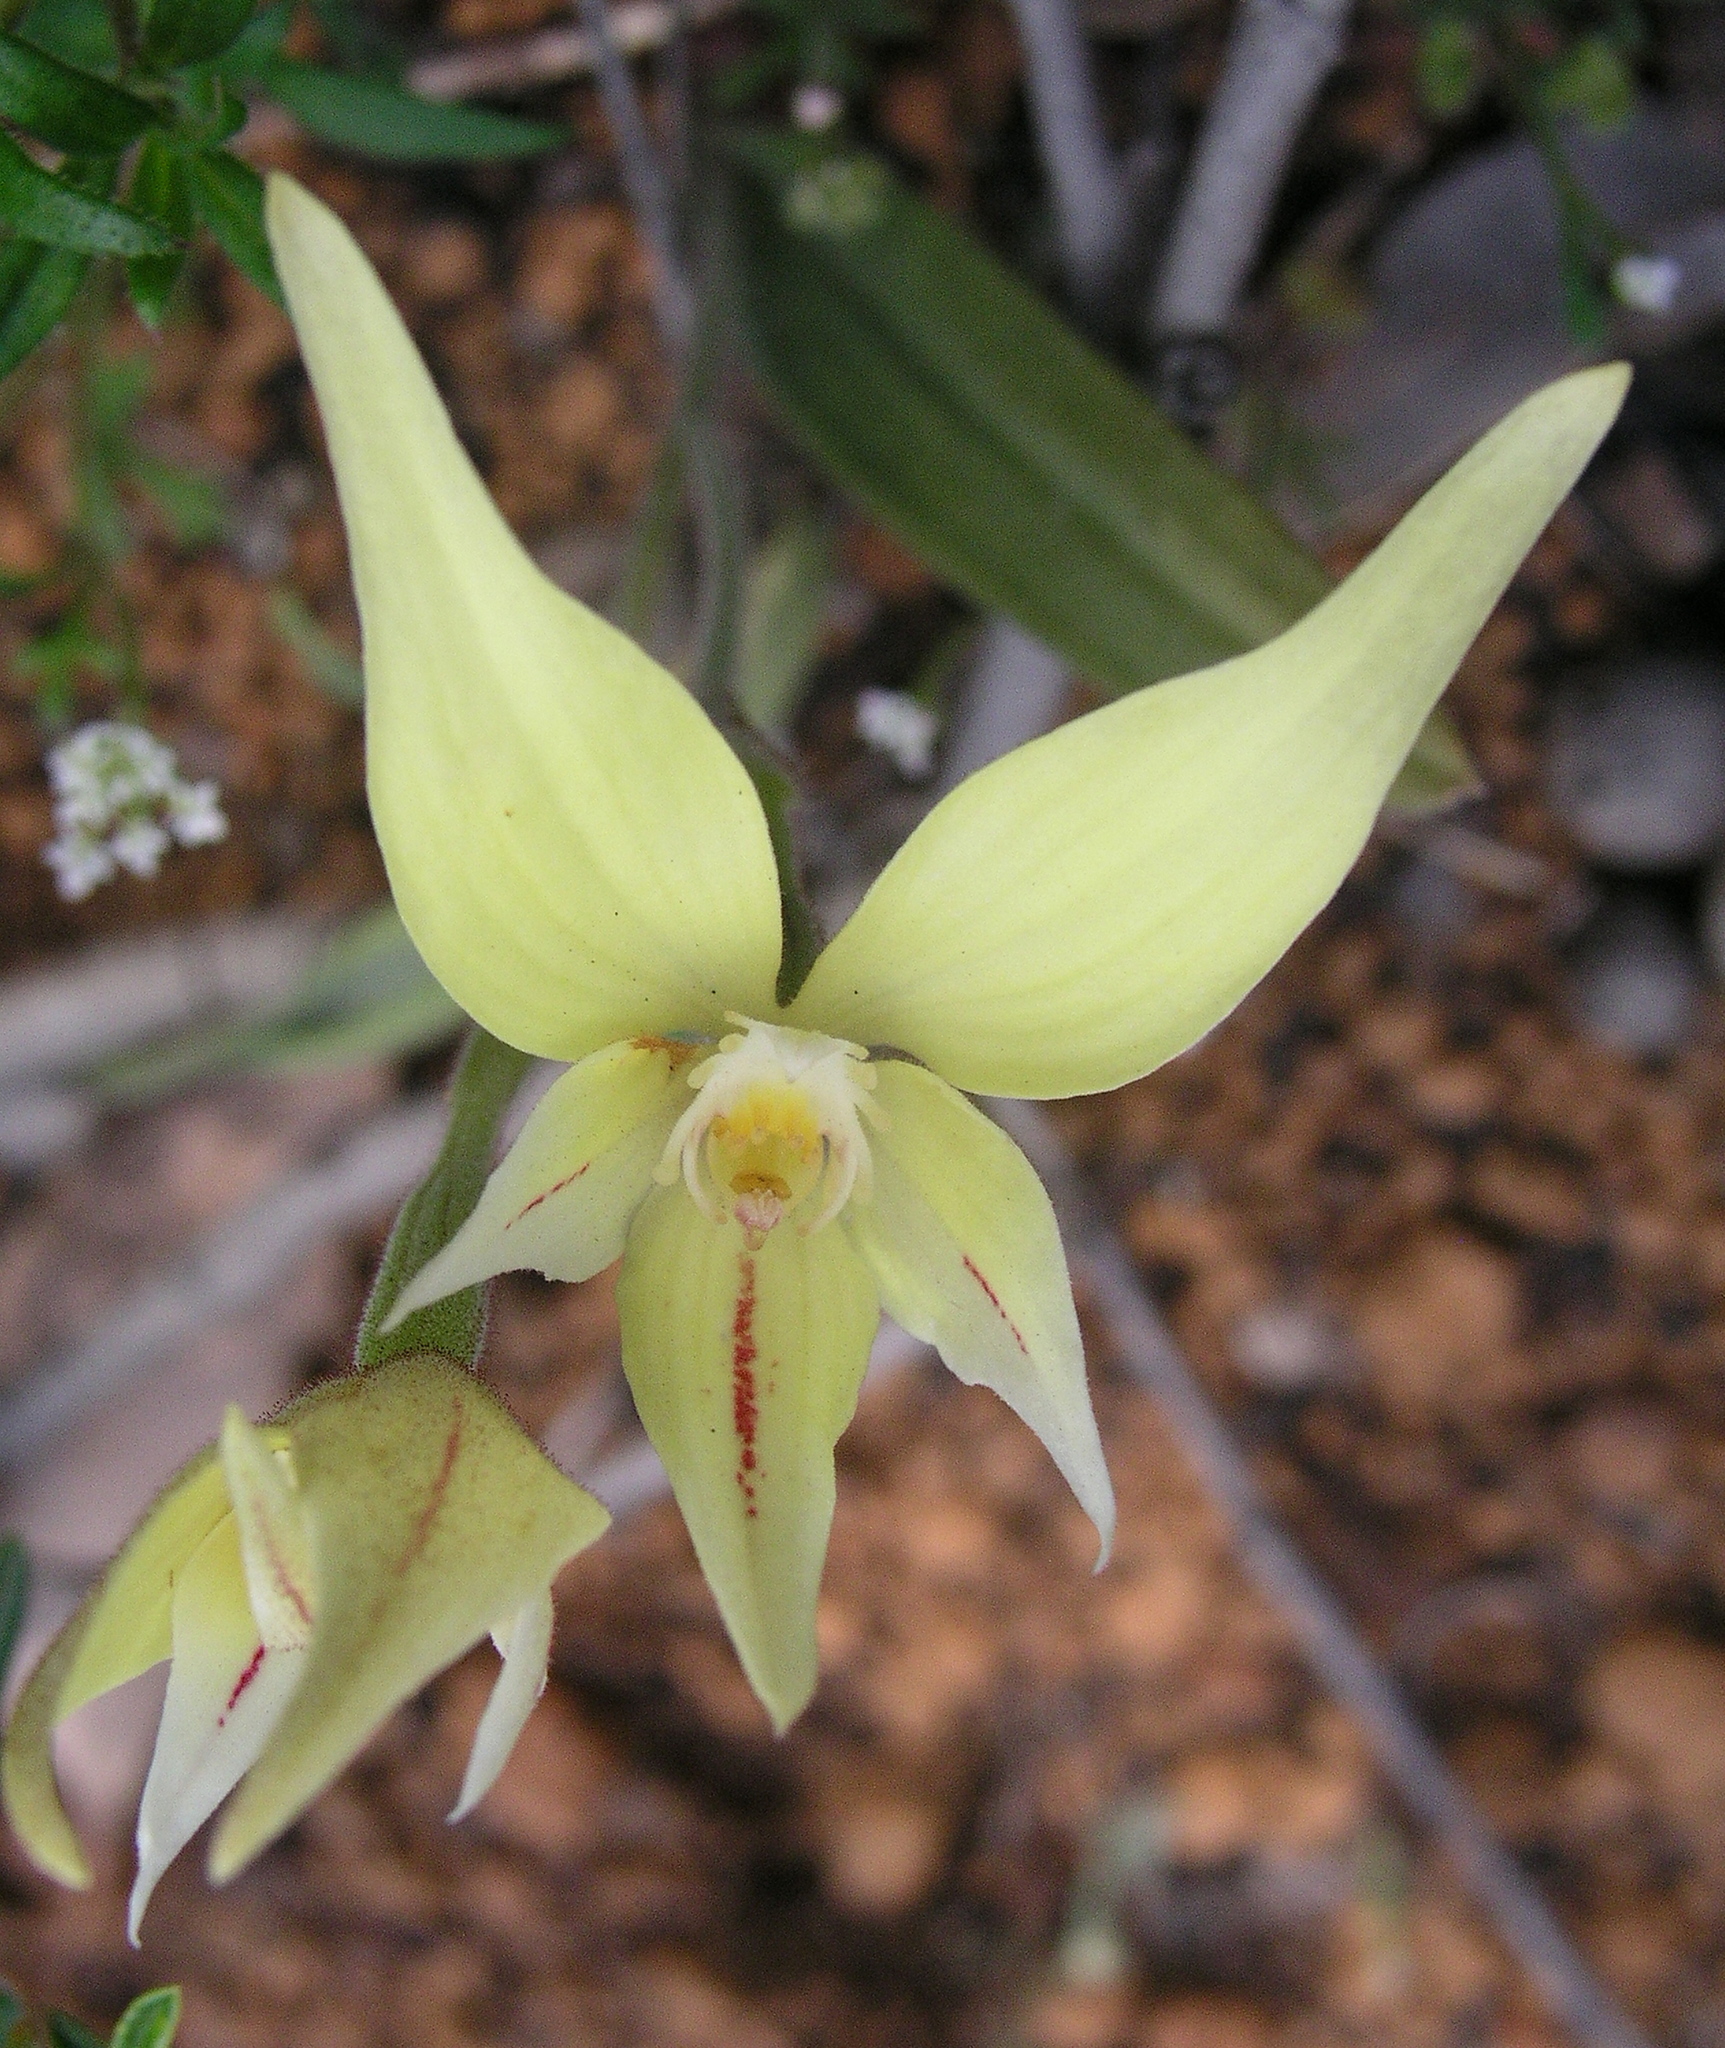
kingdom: Plantae
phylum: Tracheophyta
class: Liliopsida
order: Asparagales
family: Orchidaceae
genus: Caladenia
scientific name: Caladenia flava
